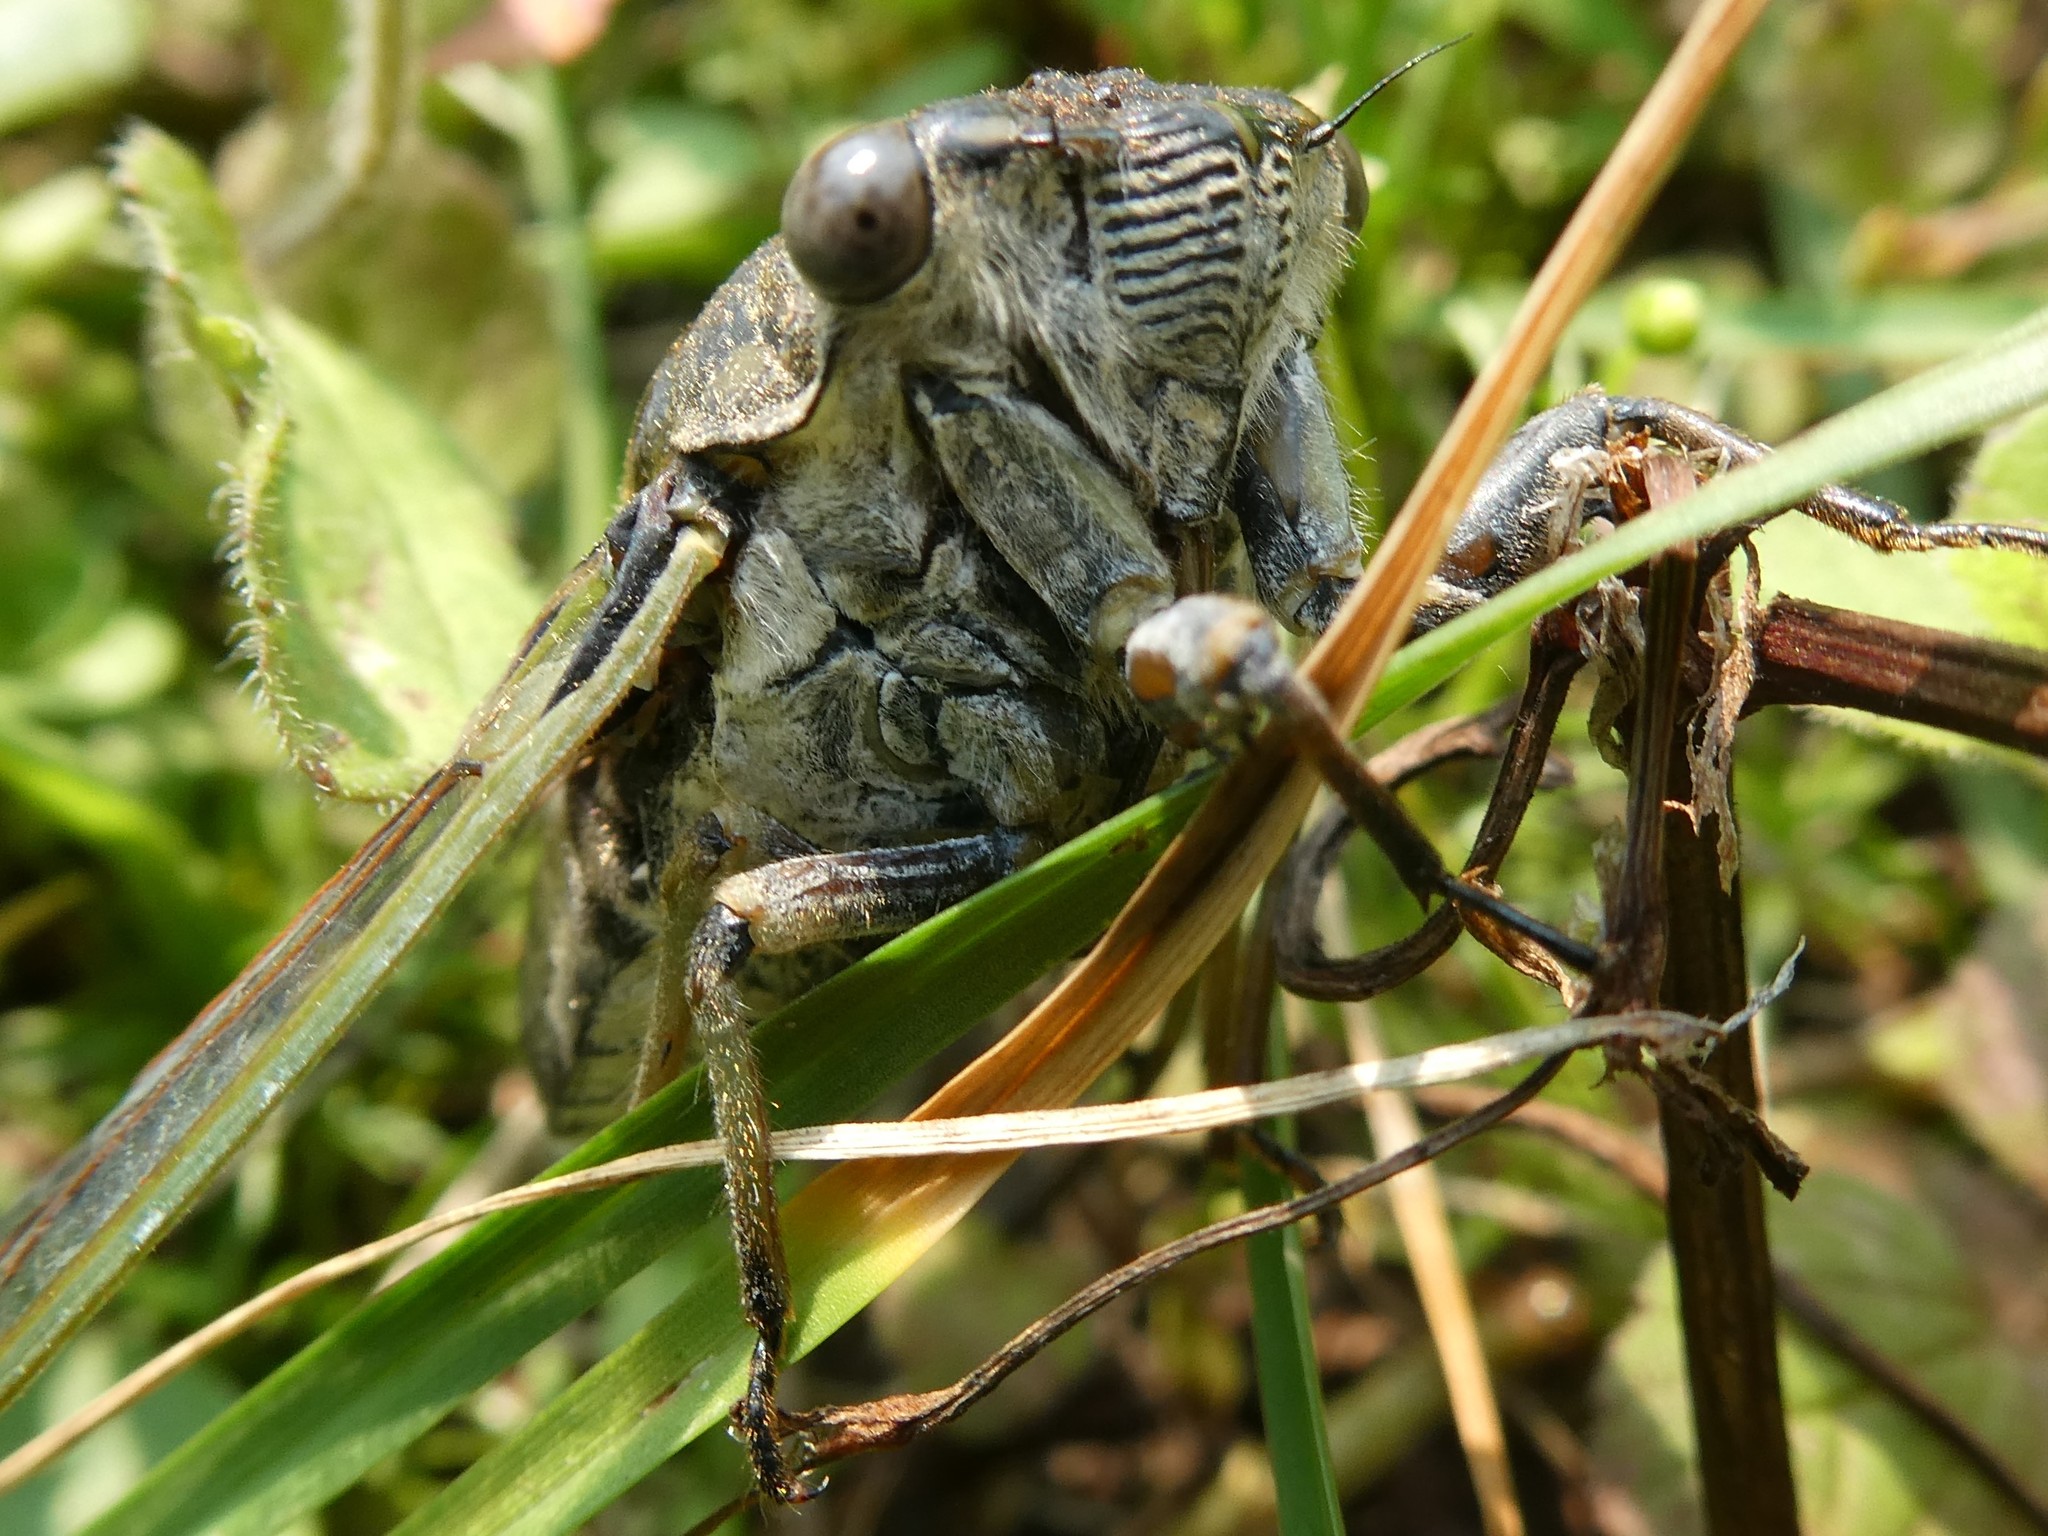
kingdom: Animalia
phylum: Arthropoda
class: Insecta
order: Hemiptera
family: Cicadidae
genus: Neotibicen
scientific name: Neotibicen canicularis
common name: God-day cicada
